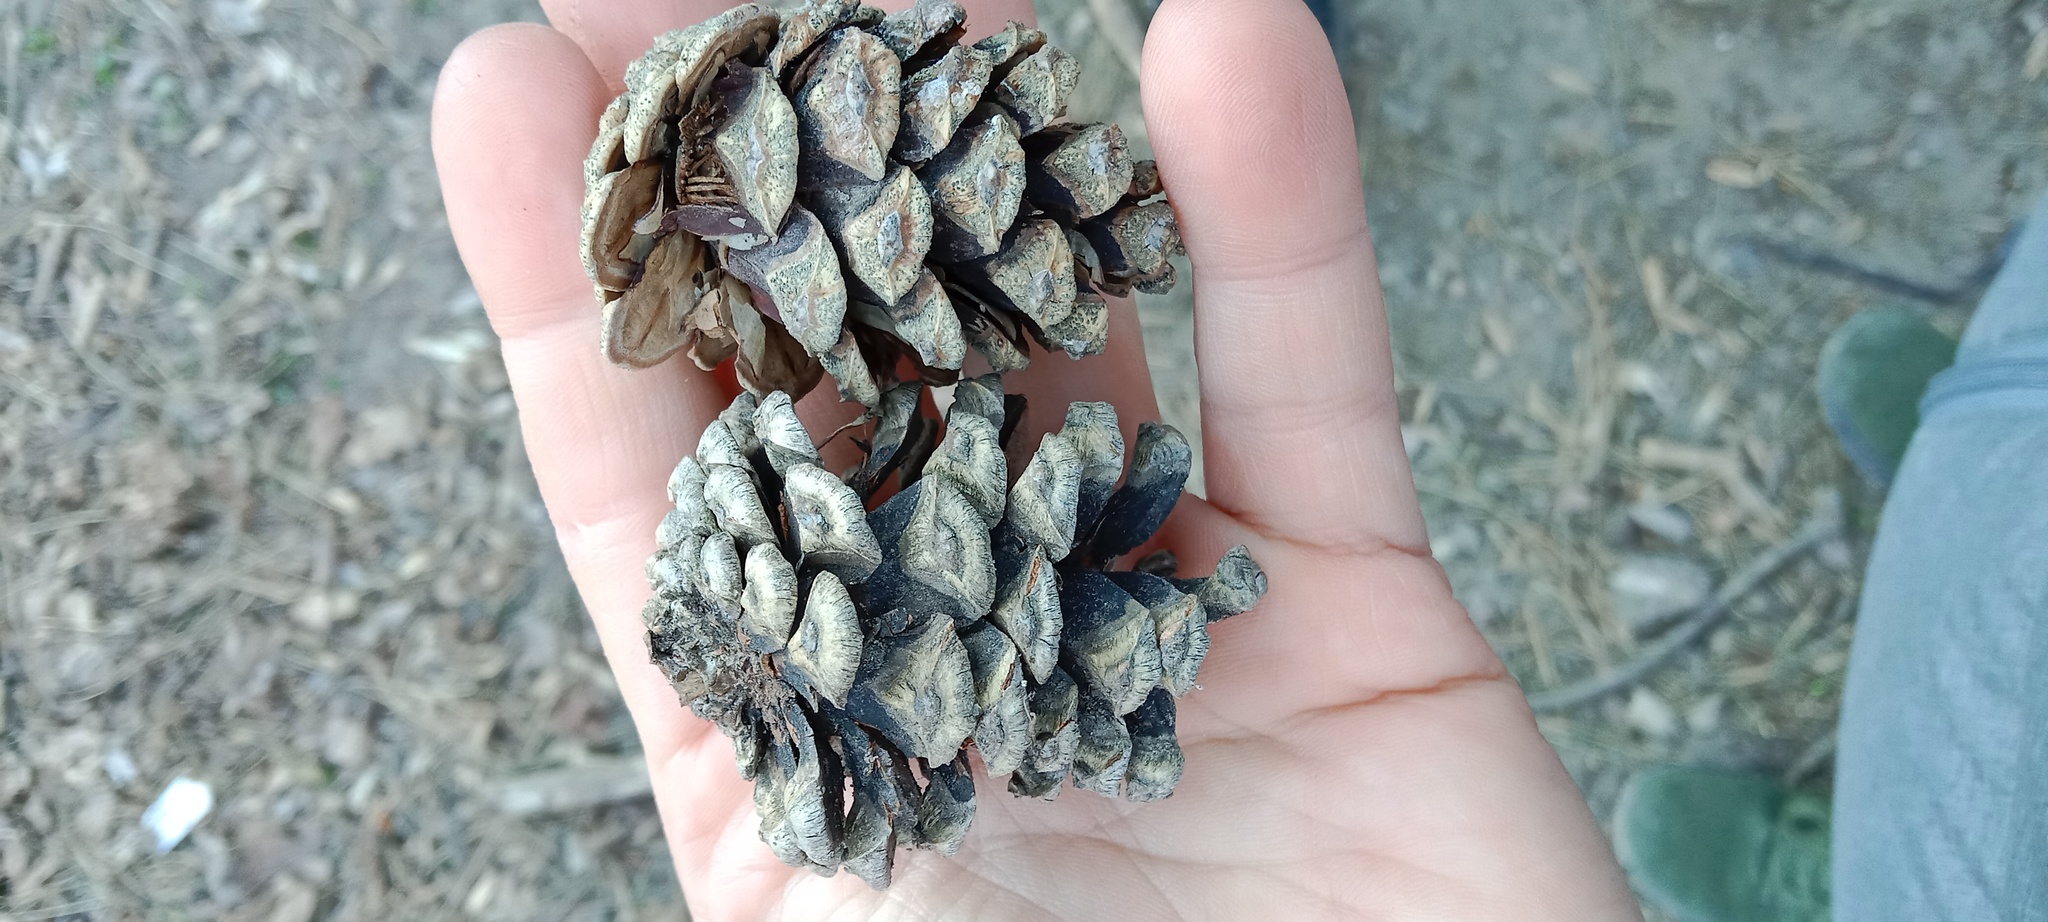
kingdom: Plantae
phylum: Tracheophyta
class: Pinopsida
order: Pinales
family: Pinaceae
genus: Pinus
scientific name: Pinus sylvestris
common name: Scots pine
